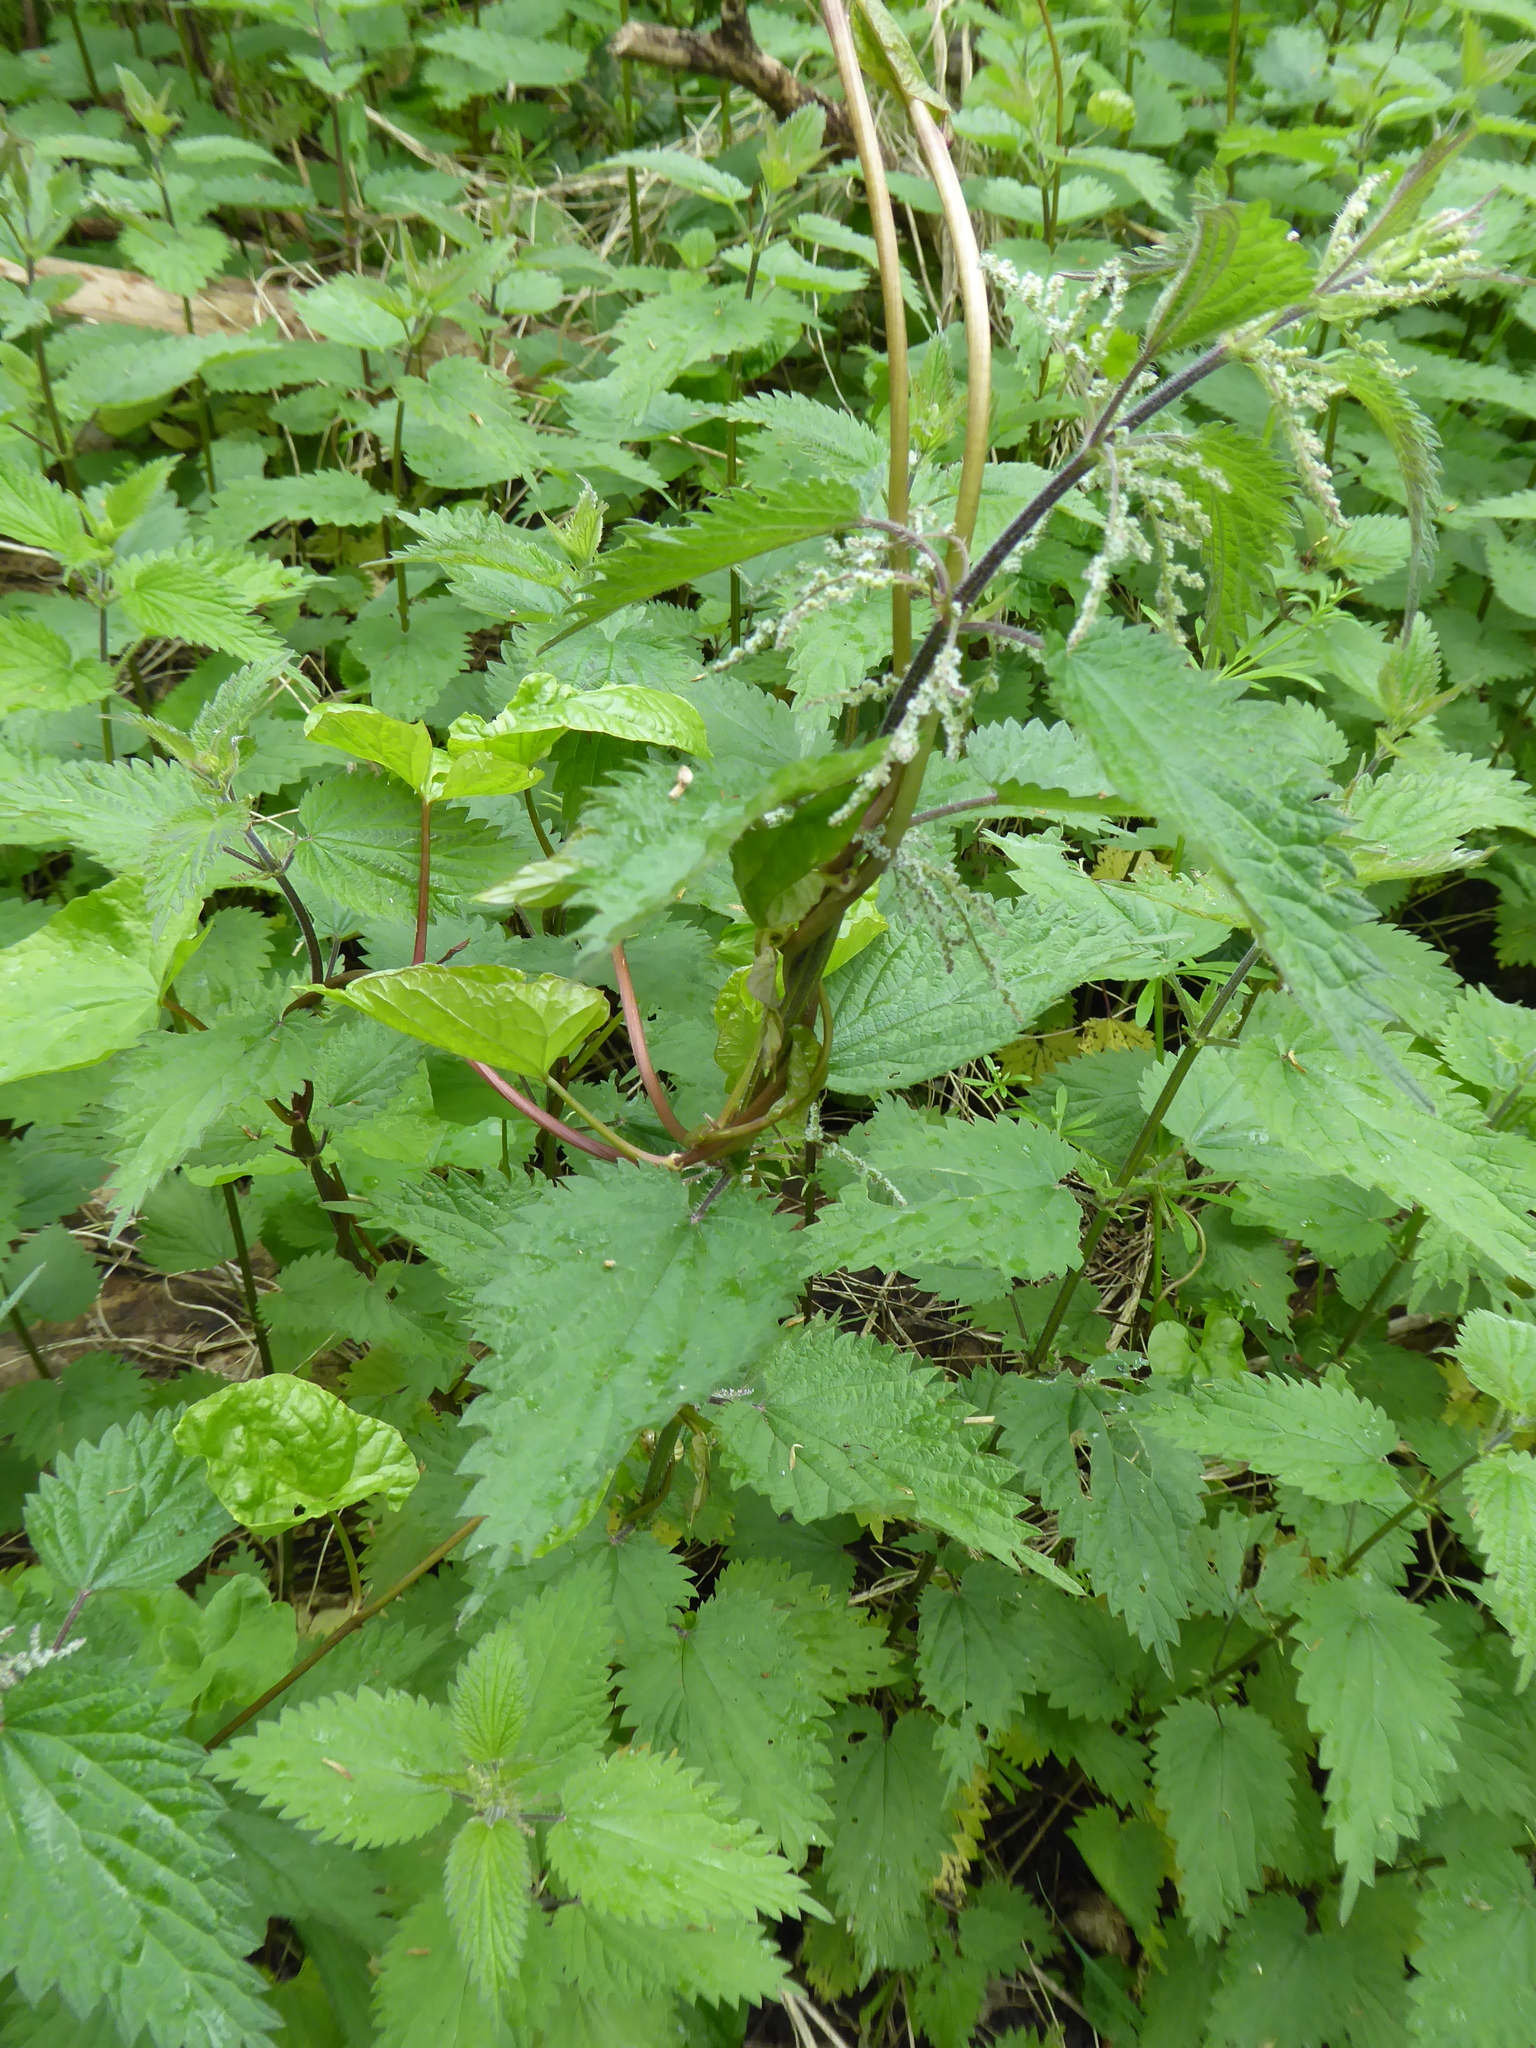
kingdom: Plantae
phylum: Tracheophyta
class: Magnoliopsida
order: Rosales
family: Urticaceae
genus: Urtica
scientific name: Urtica dioica
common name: Common nettle
